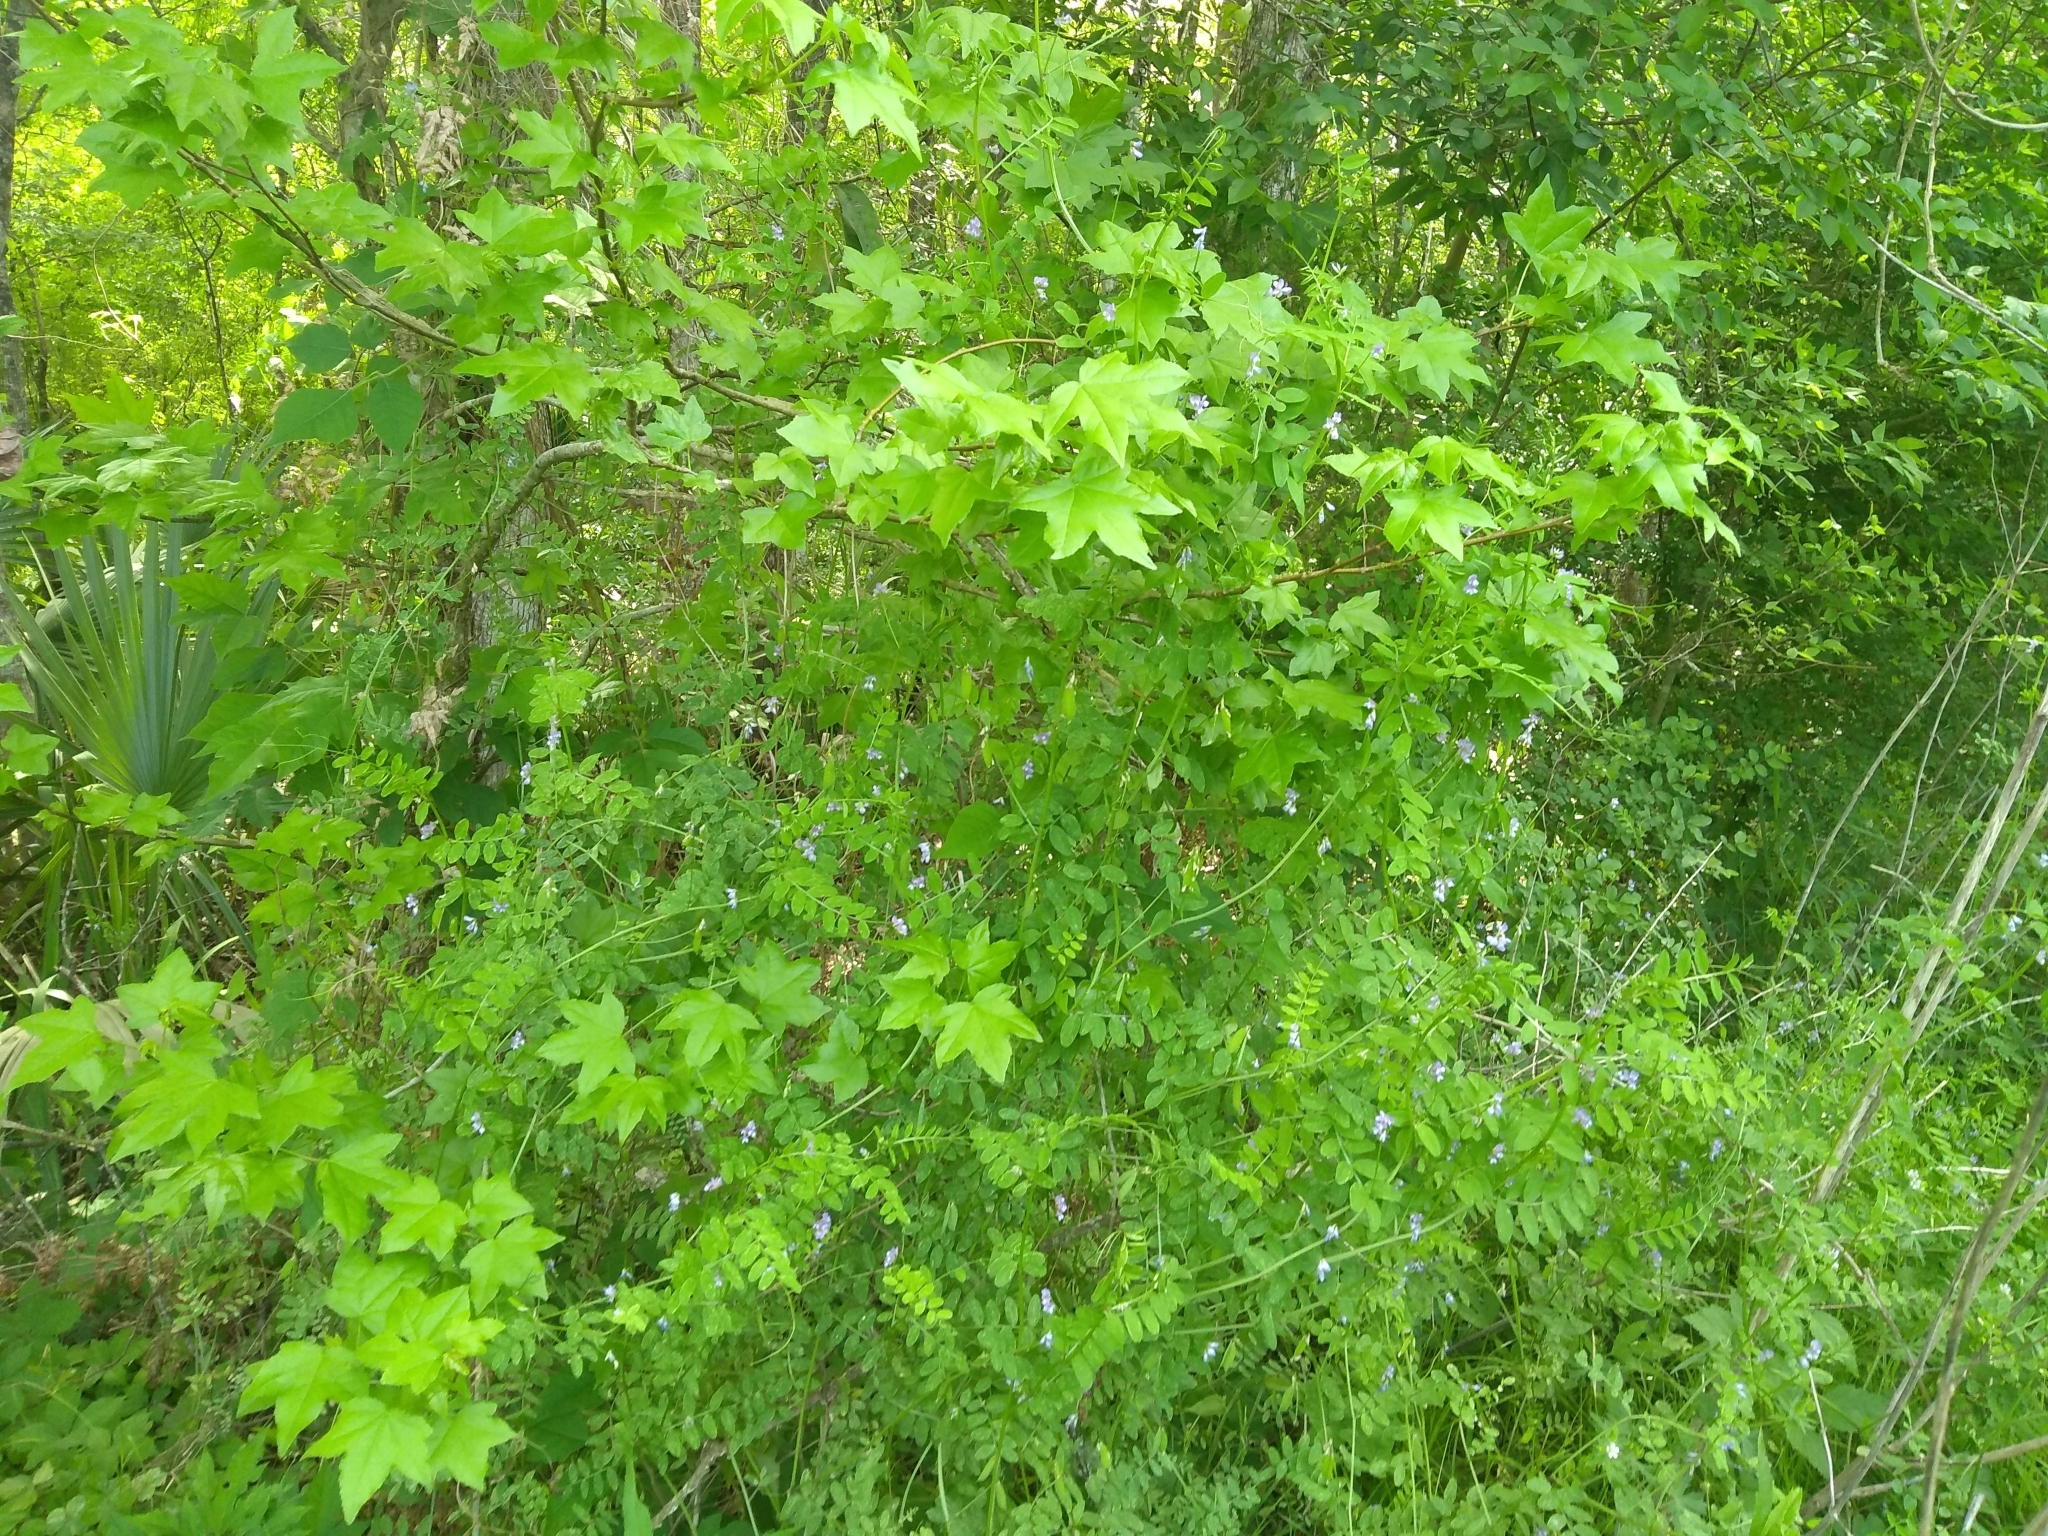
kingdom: Plantae
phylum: Tracheophyta
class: Magnoliopsida
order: Saxifragales
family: Altingiaceae
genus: Liquidambar
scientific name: Liquidambar styraciflua
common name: Sweet gum
